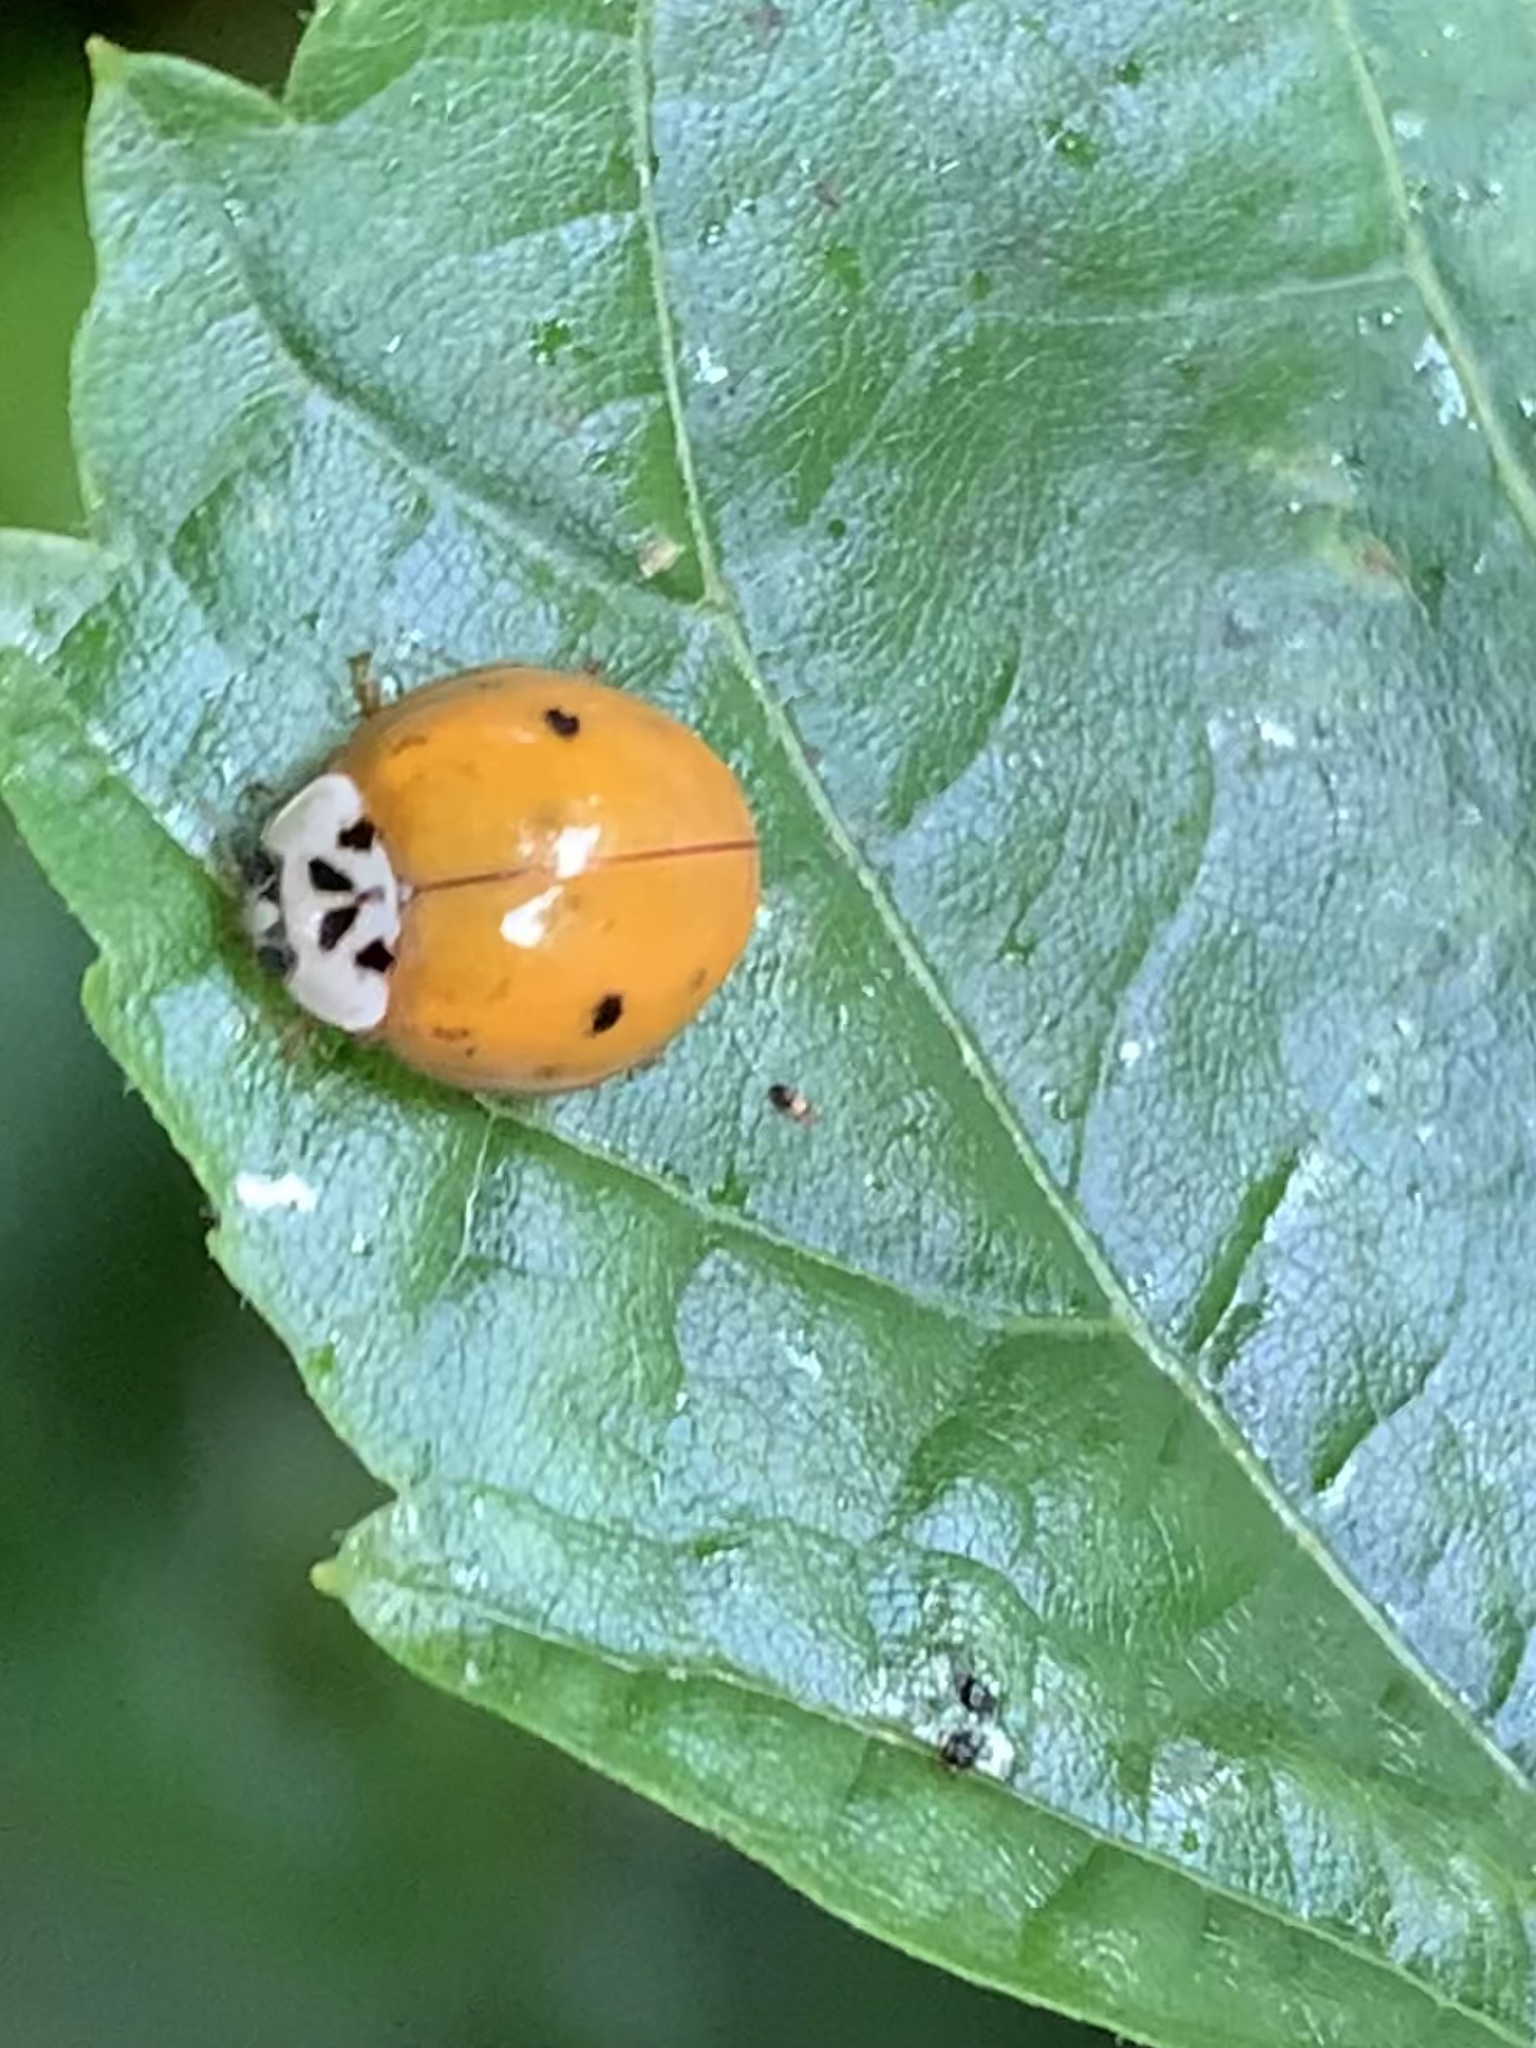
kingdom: Animalia
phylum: Arthropoda
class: Insecta
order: Coleoptera
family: Coccinellidae
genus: Harmonia
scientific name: Harmonia axyridis
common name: Harlequin ladybird
